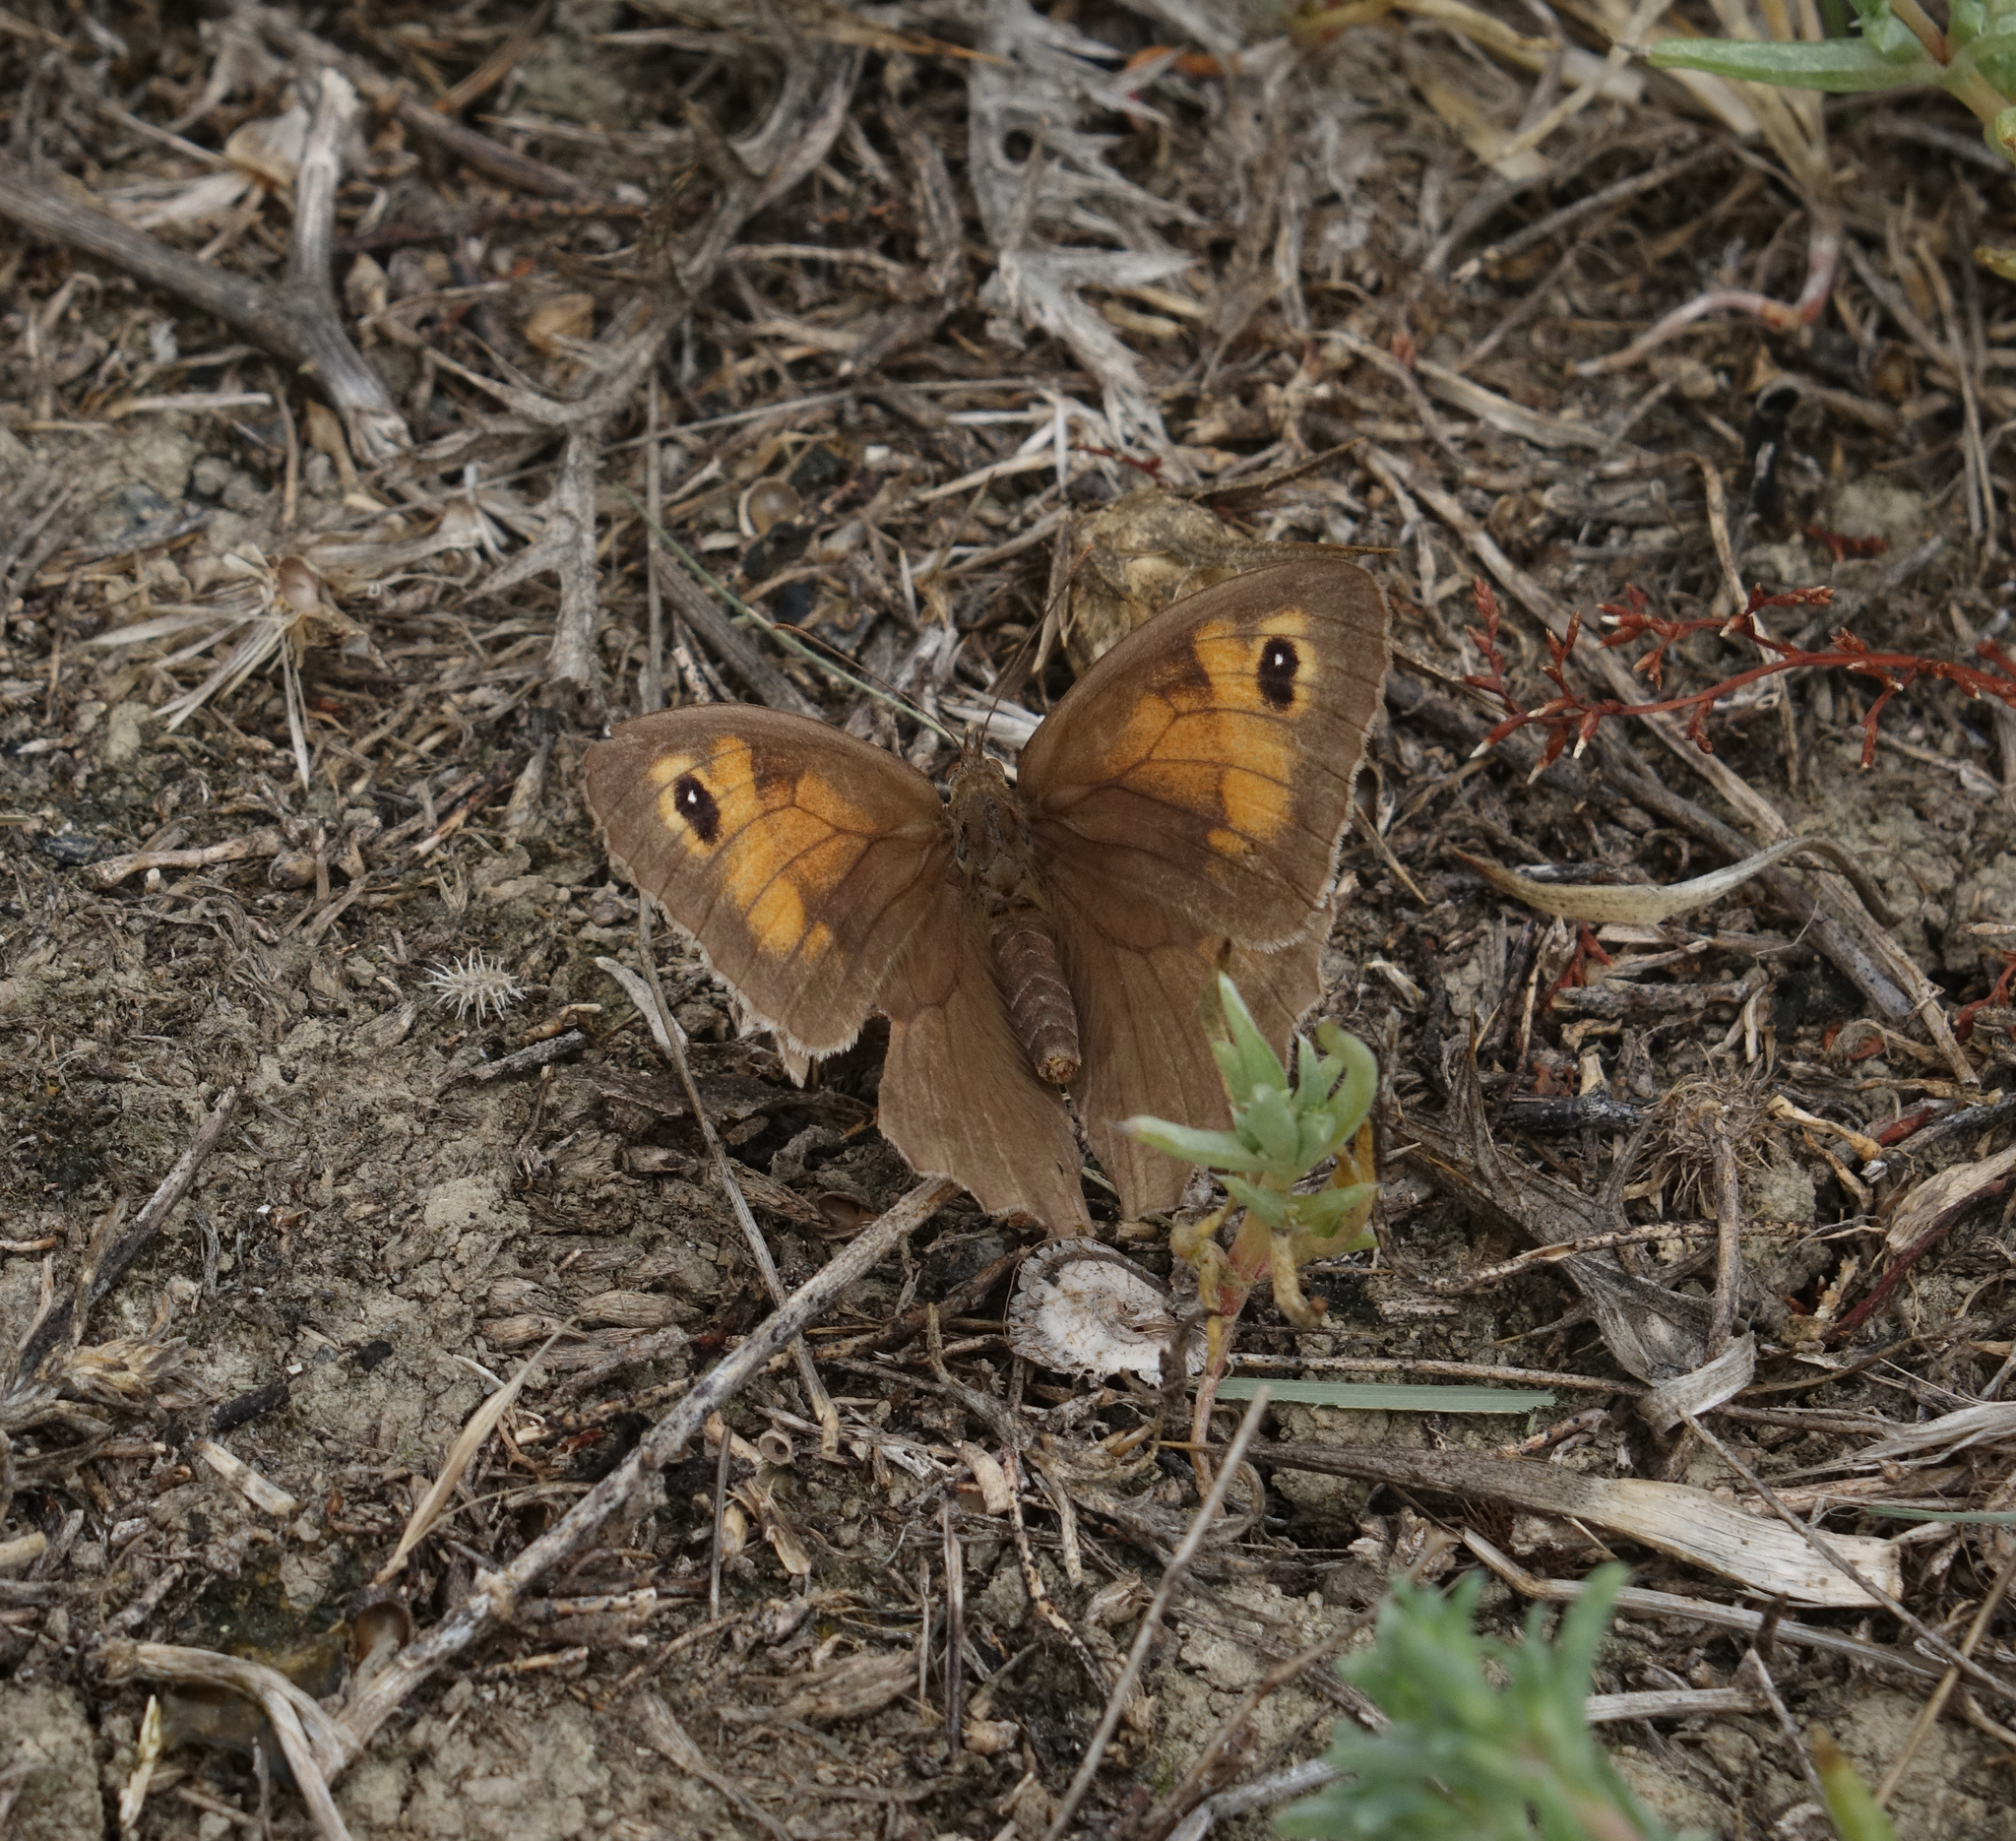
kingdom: Animalia
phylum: Arthropoda
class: Insecta
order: Lepidoptera
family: Nymphalidae
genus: Maniola
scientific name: Maniola jurtina
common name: Meadow brown
